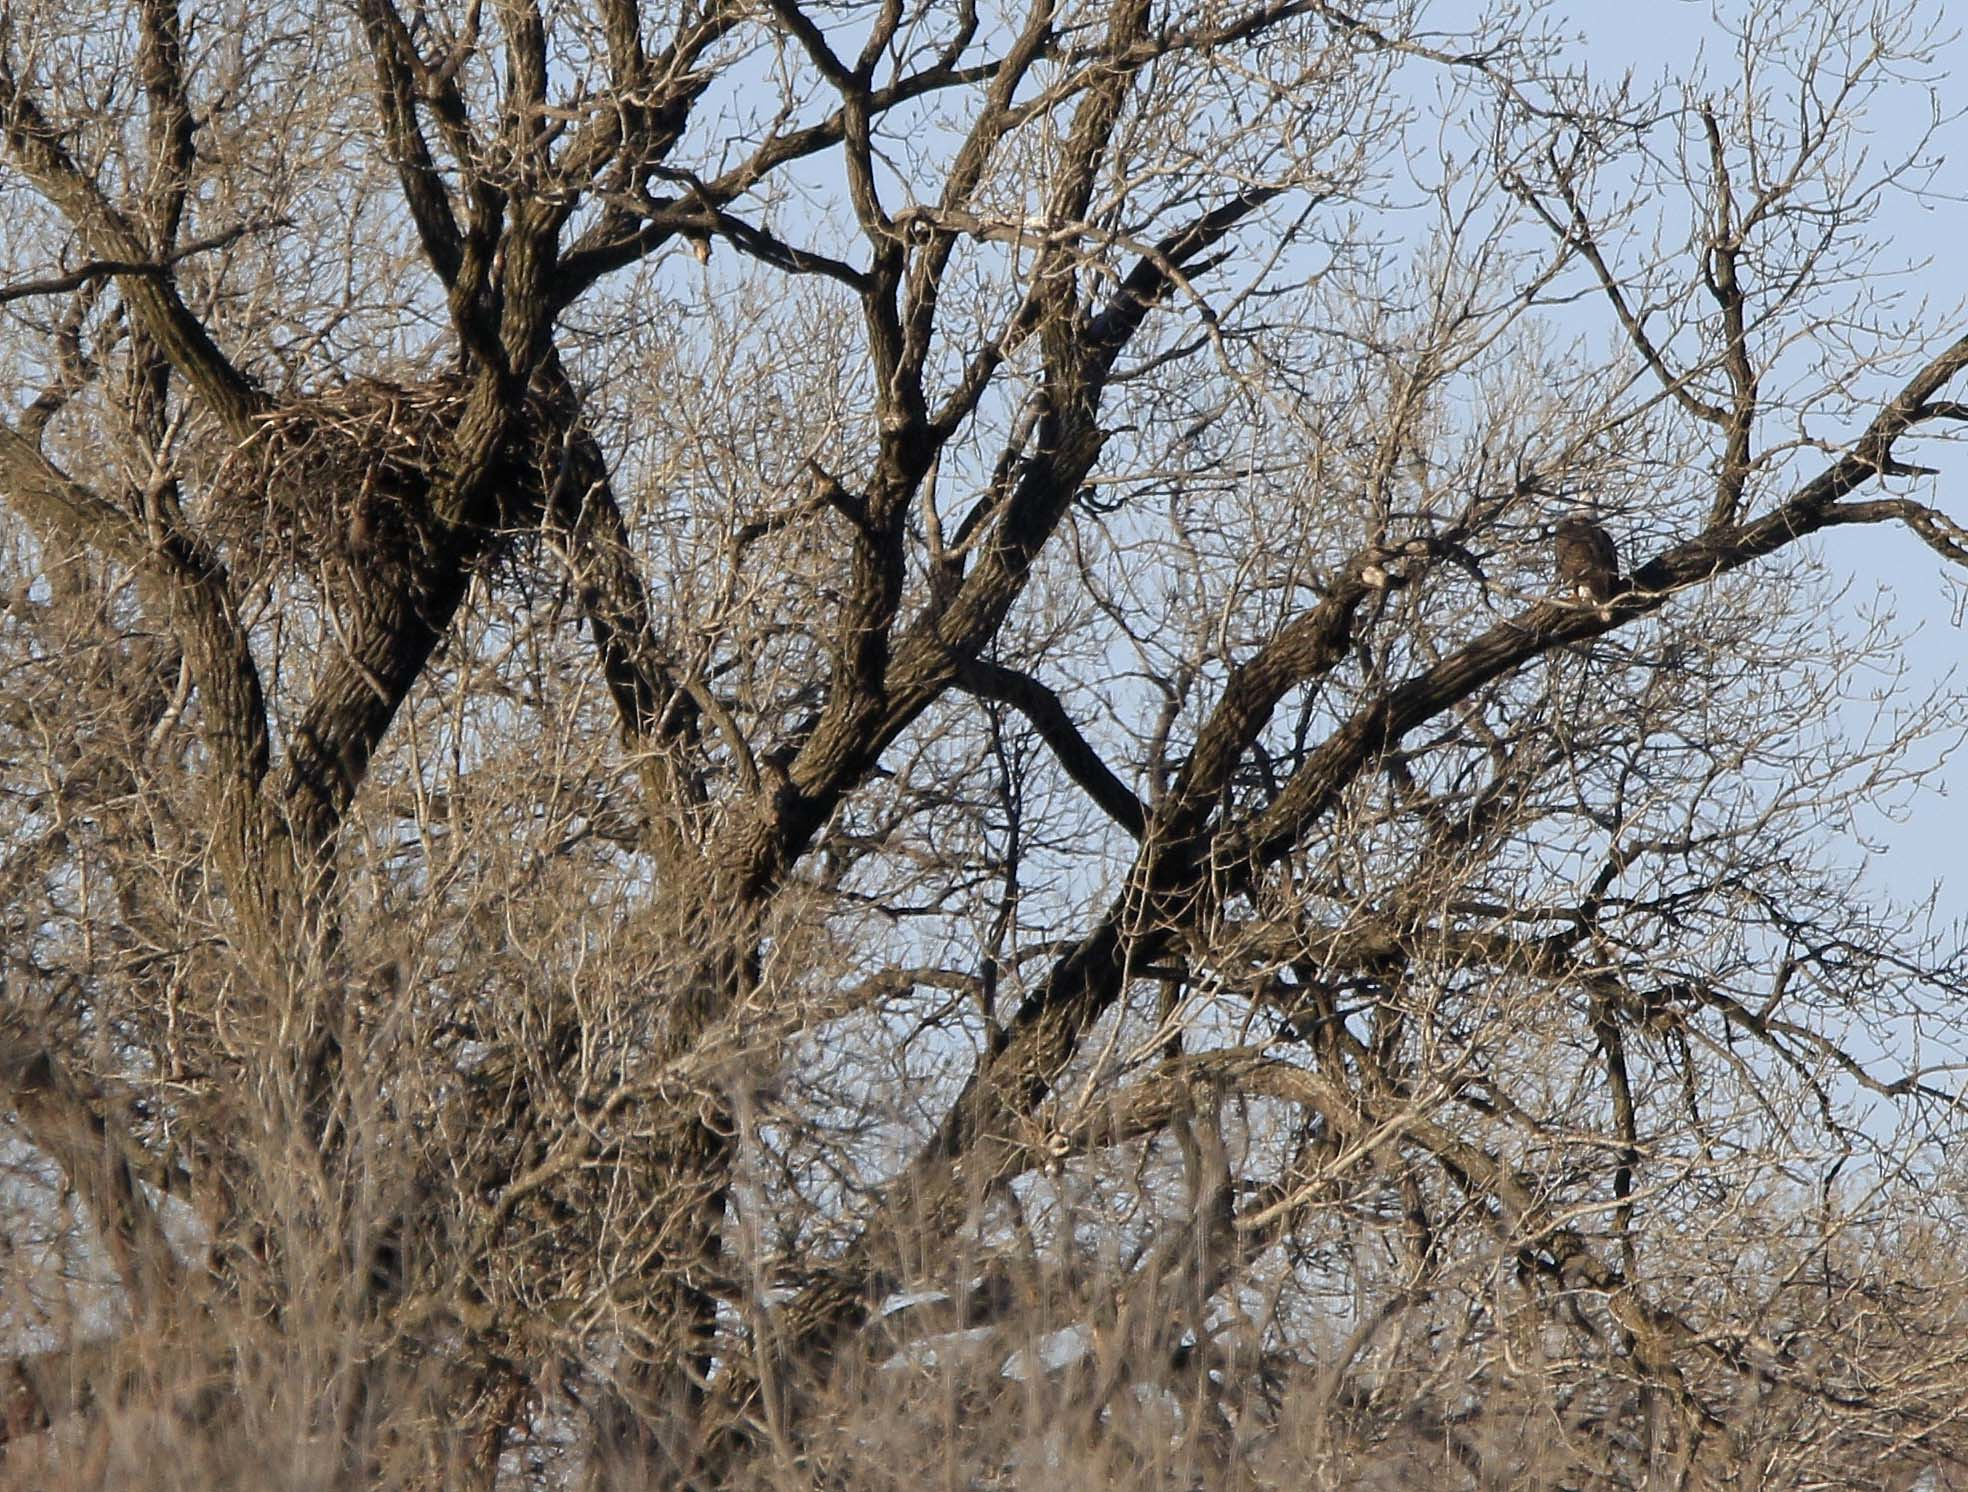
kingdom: Animalia
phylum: Chordata
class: Aves
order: Accipitriformes
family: Accipitridae
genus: Haliaeetus
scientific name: Haliaeetus leucocephalus
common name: Bald eagle
